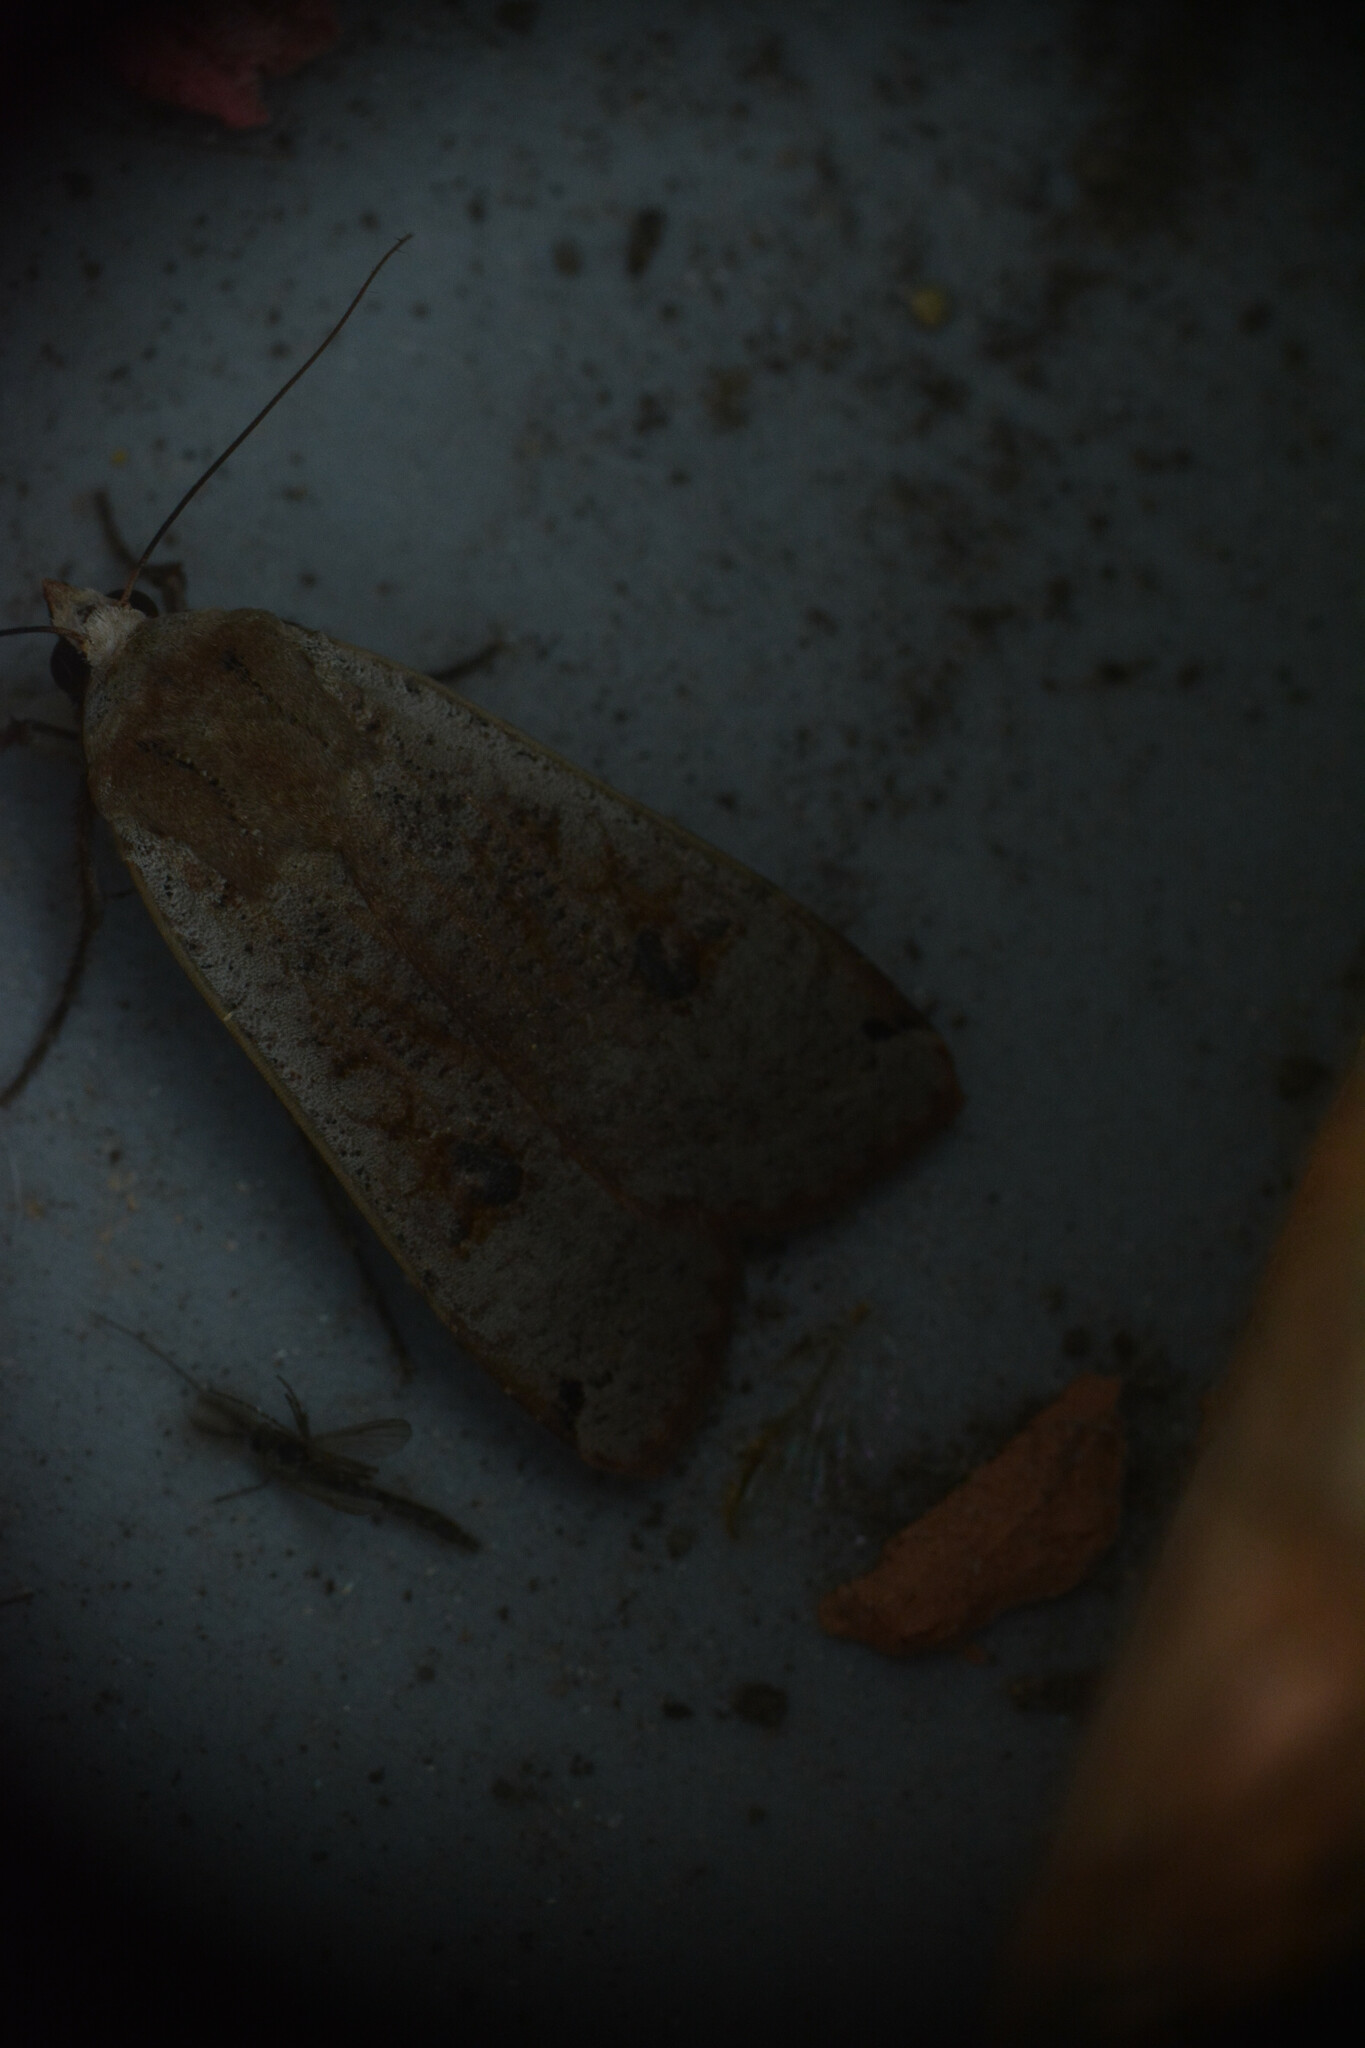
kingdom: Animalia
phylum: Arthropoda
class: Insecta
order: Lepidoptera
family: Noctuidae
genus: Noctua
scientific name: Noctua pronuba
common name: Large yellow underwing
